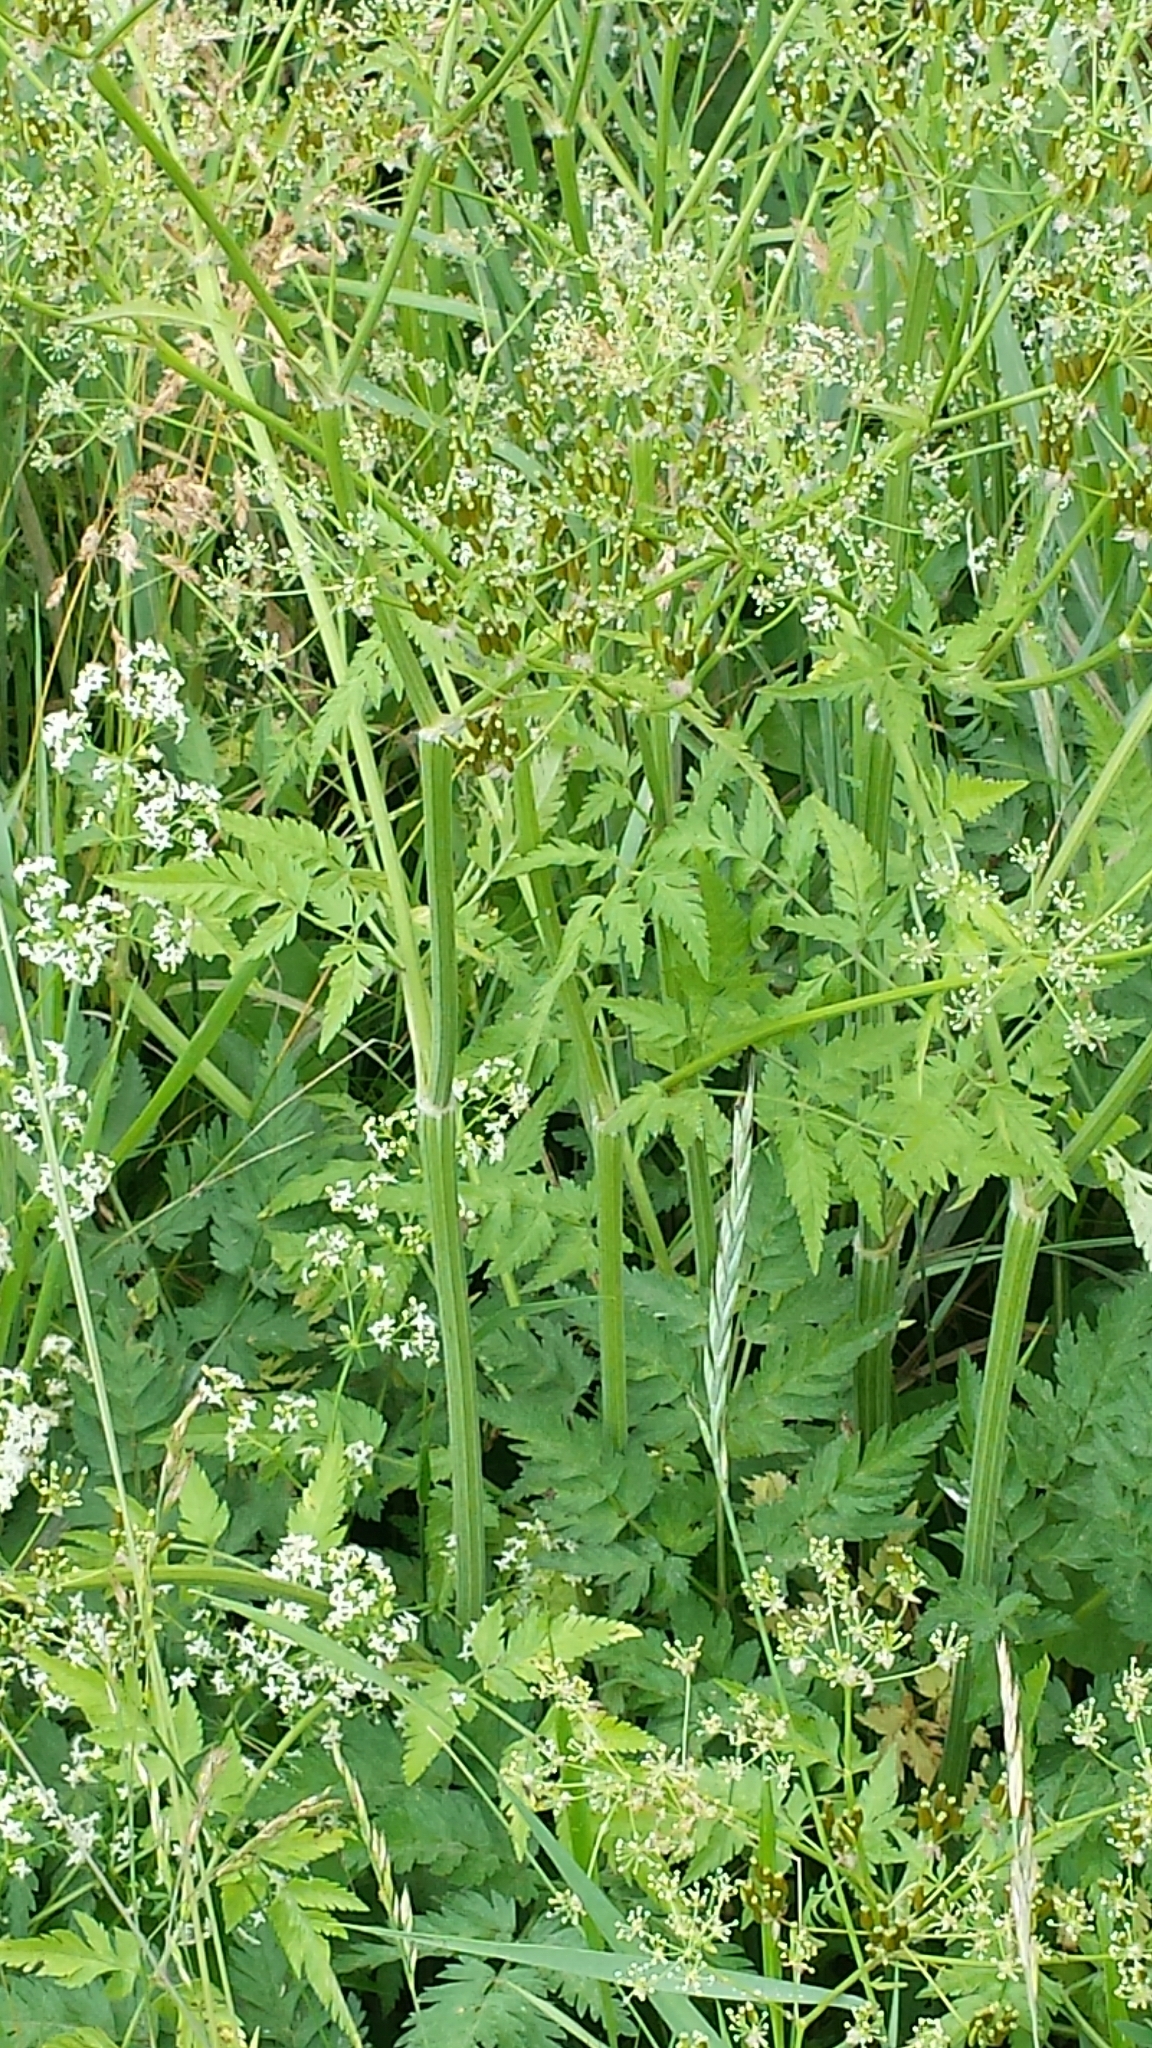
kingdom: Plantae
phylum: Tracheophyta
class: Magnoliopsida
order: Apiales
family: Apiaceae
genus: Anthriscus
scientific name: Anthriscus sylvestris
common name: Cow parsley
